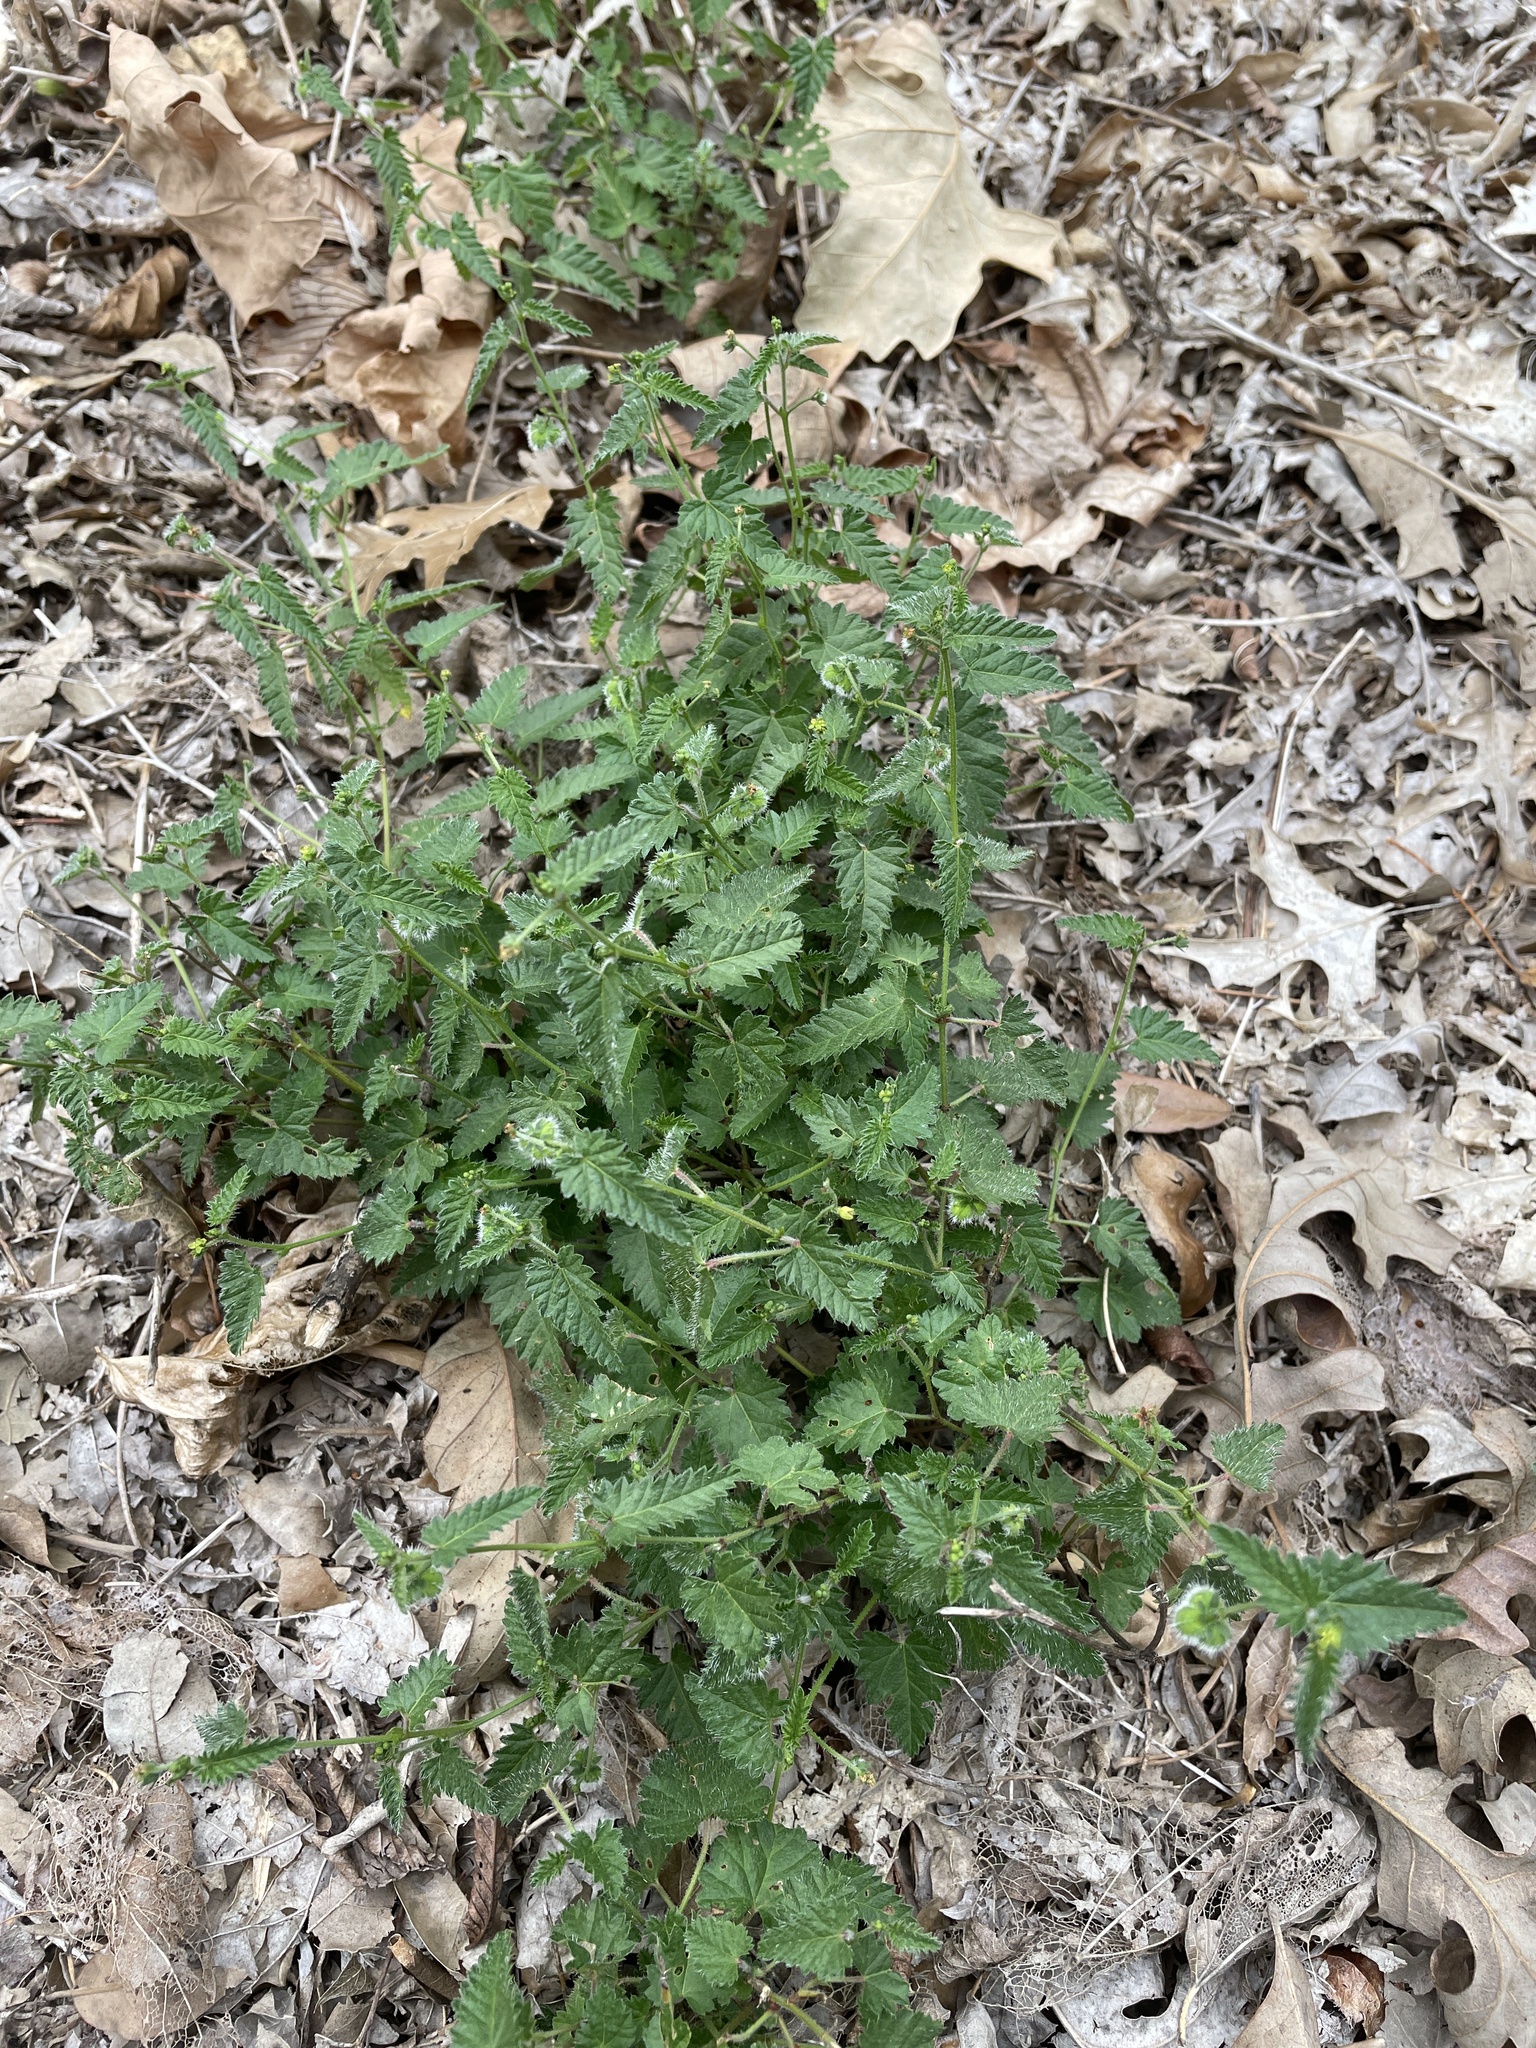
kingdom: Plantae
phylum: Tracheophyta
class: Magnoliopsida
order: Malpighiales
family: Euphorbiaceae
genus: Tragia
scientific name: Tragia ramosa
